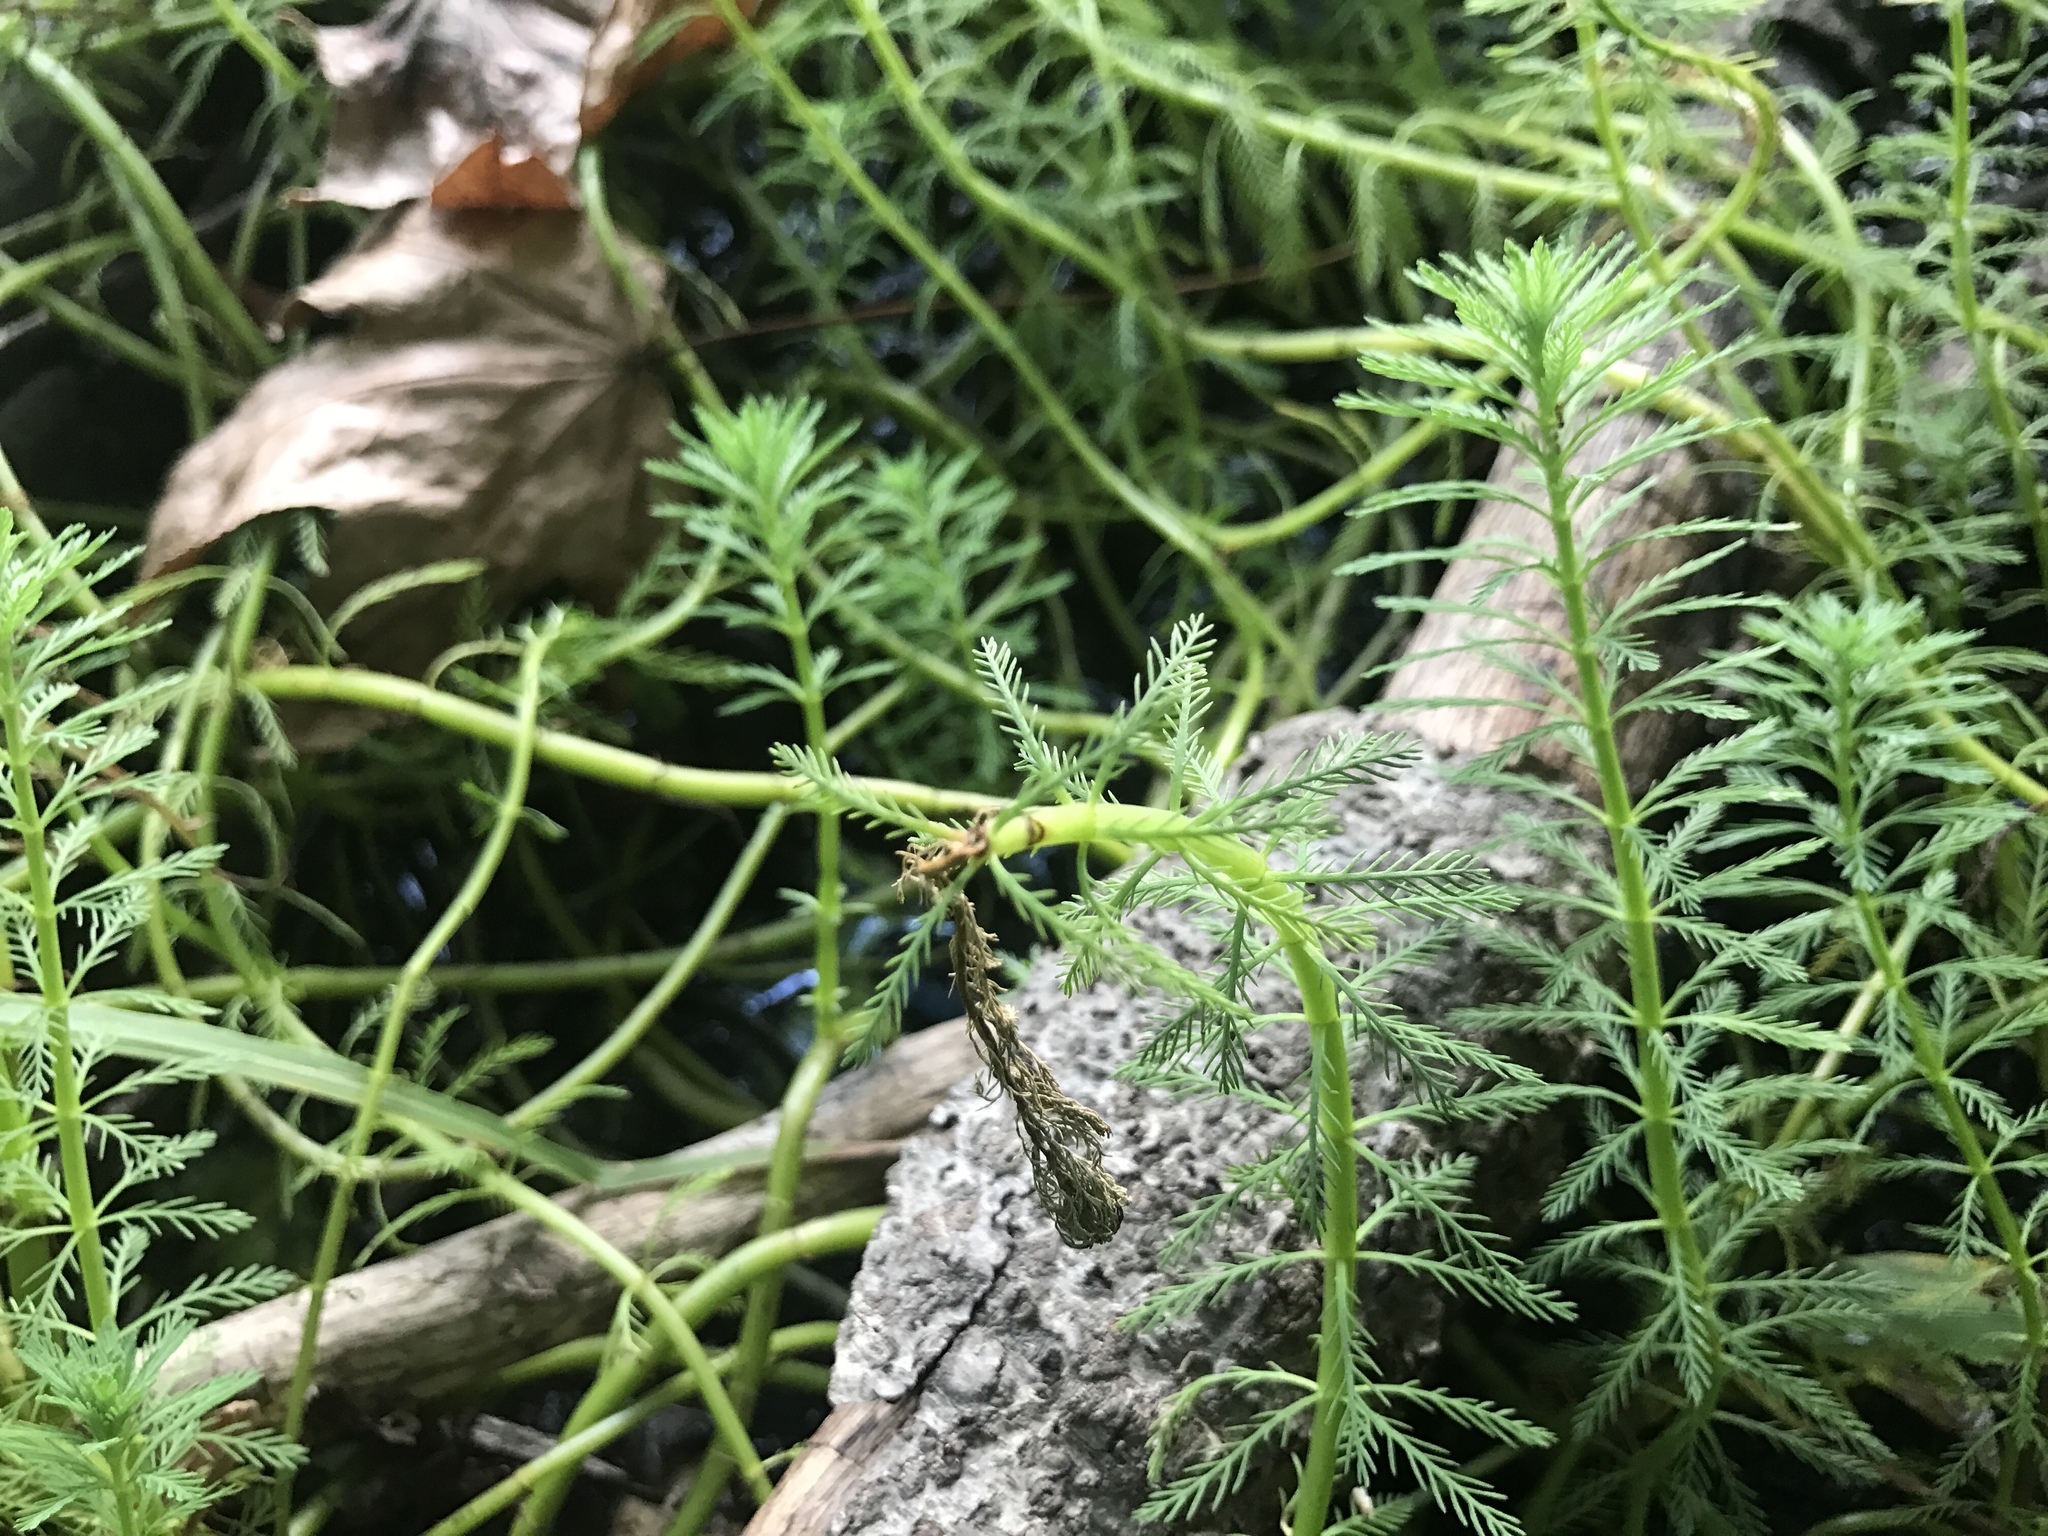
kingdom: Plantae
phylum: Tracheophyta
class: Magnoliopsida
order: Saxifragales
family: Haloragaceae
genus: Myriophyllum
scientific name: Myriophyllum aquaticum
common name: Parrot's feather
